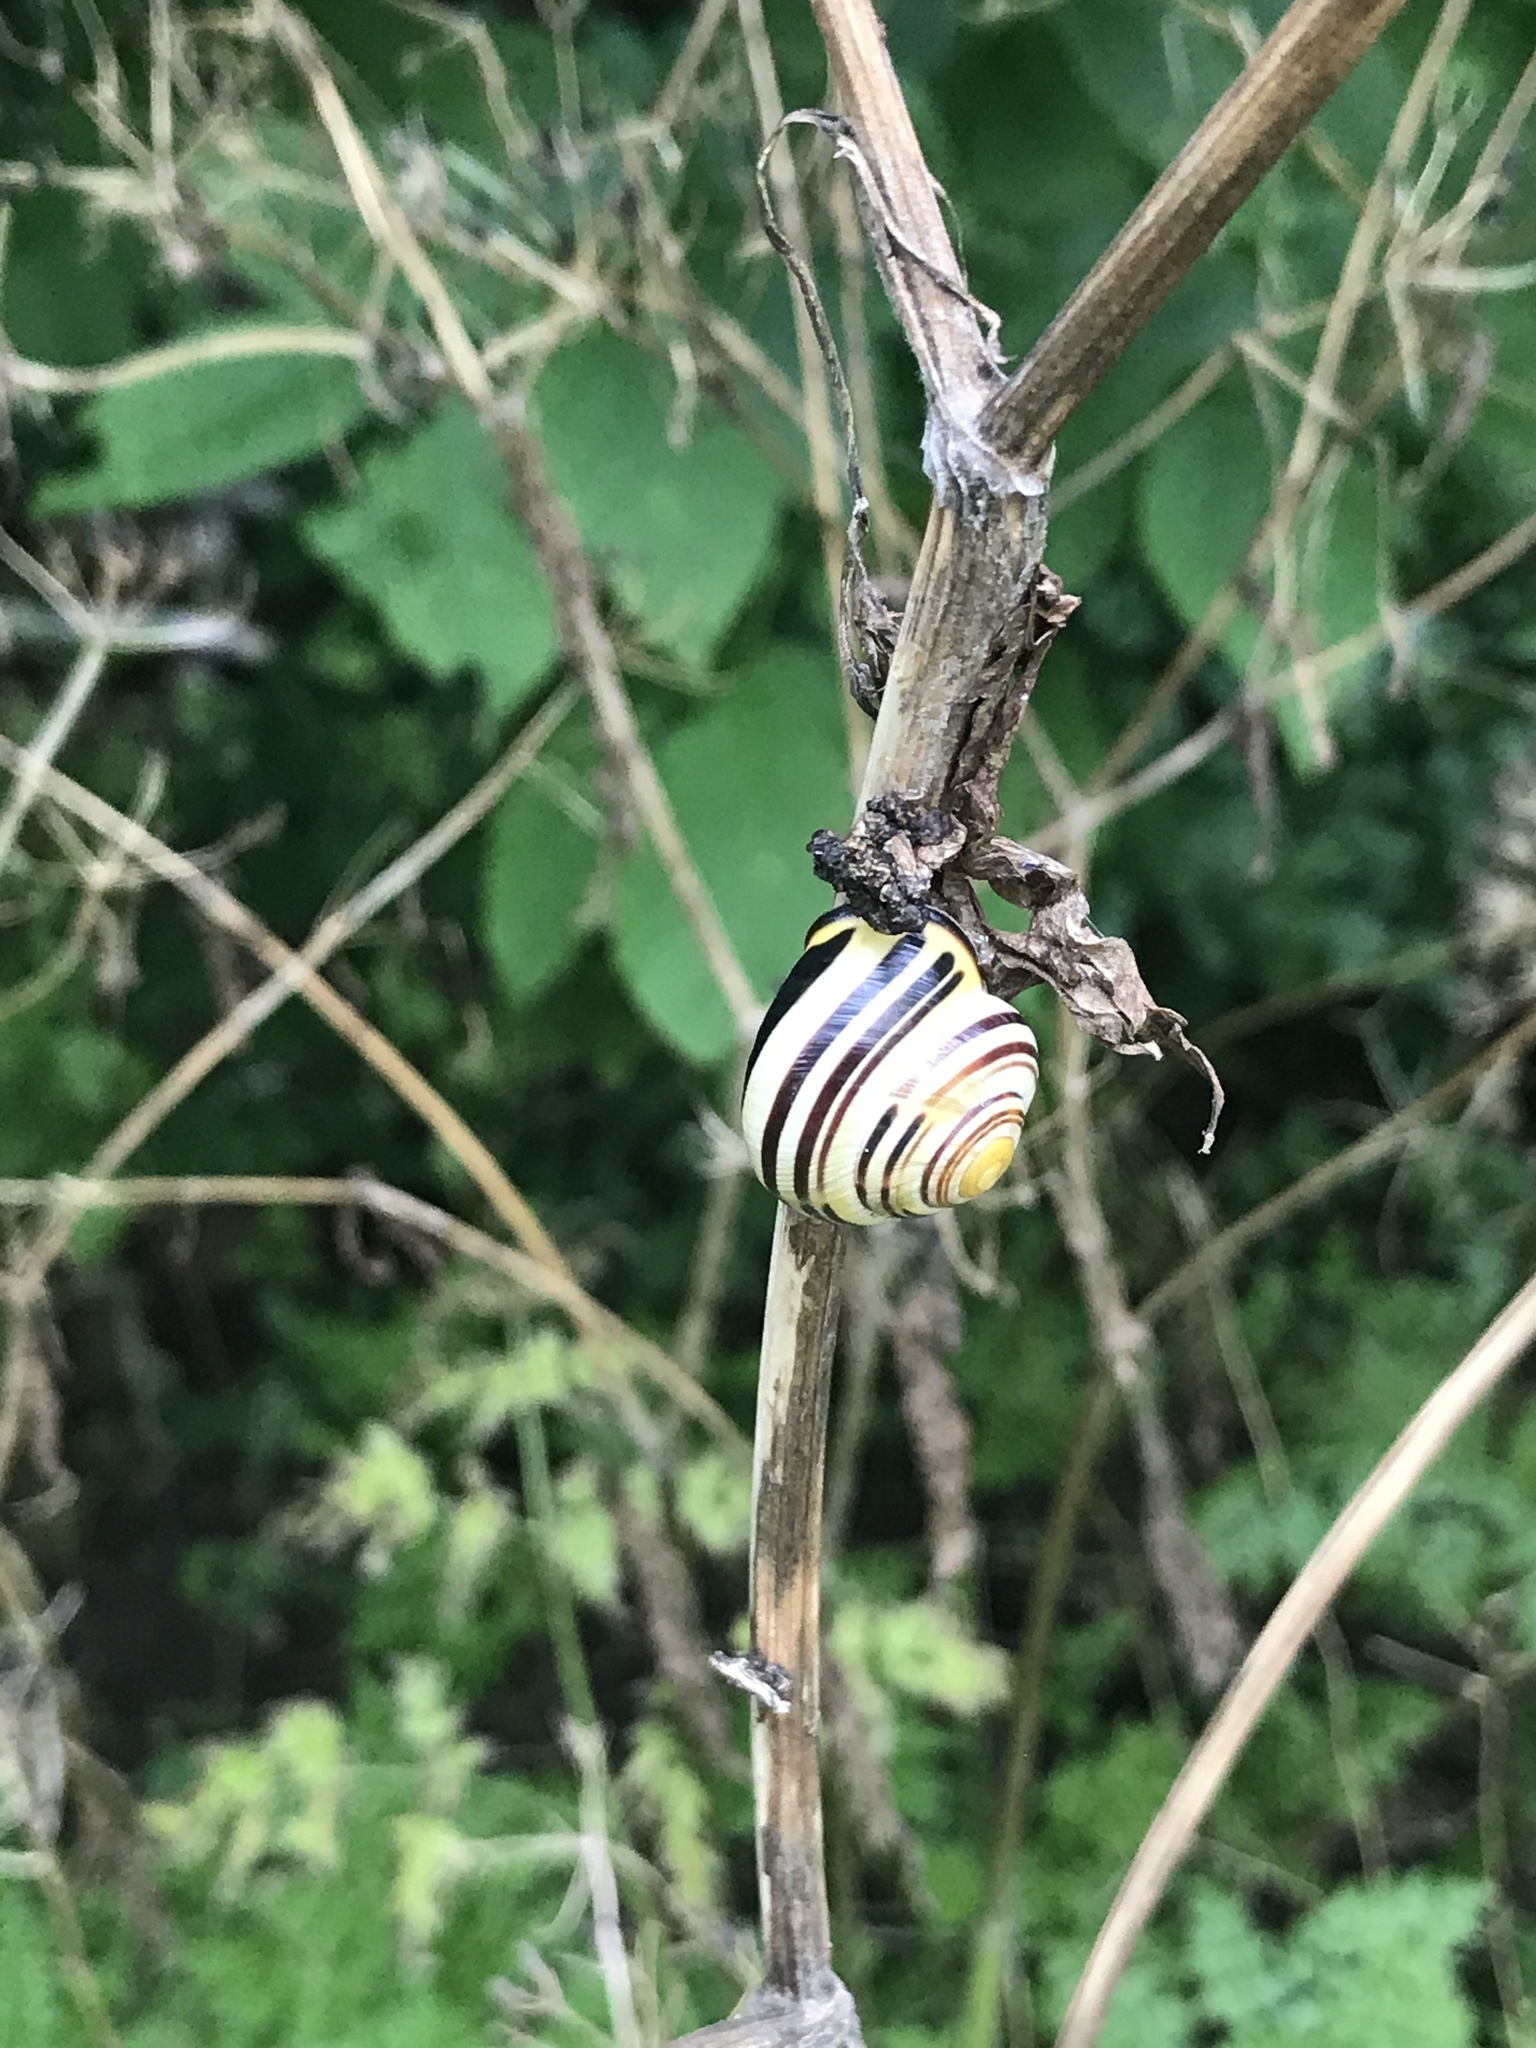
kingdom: Animalia
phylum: Mollusca
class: Gastropoda
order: Stylommatophora
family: Helicidae
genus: Cepaea
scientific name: Cepaea nemoralis
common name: Grovesnail
